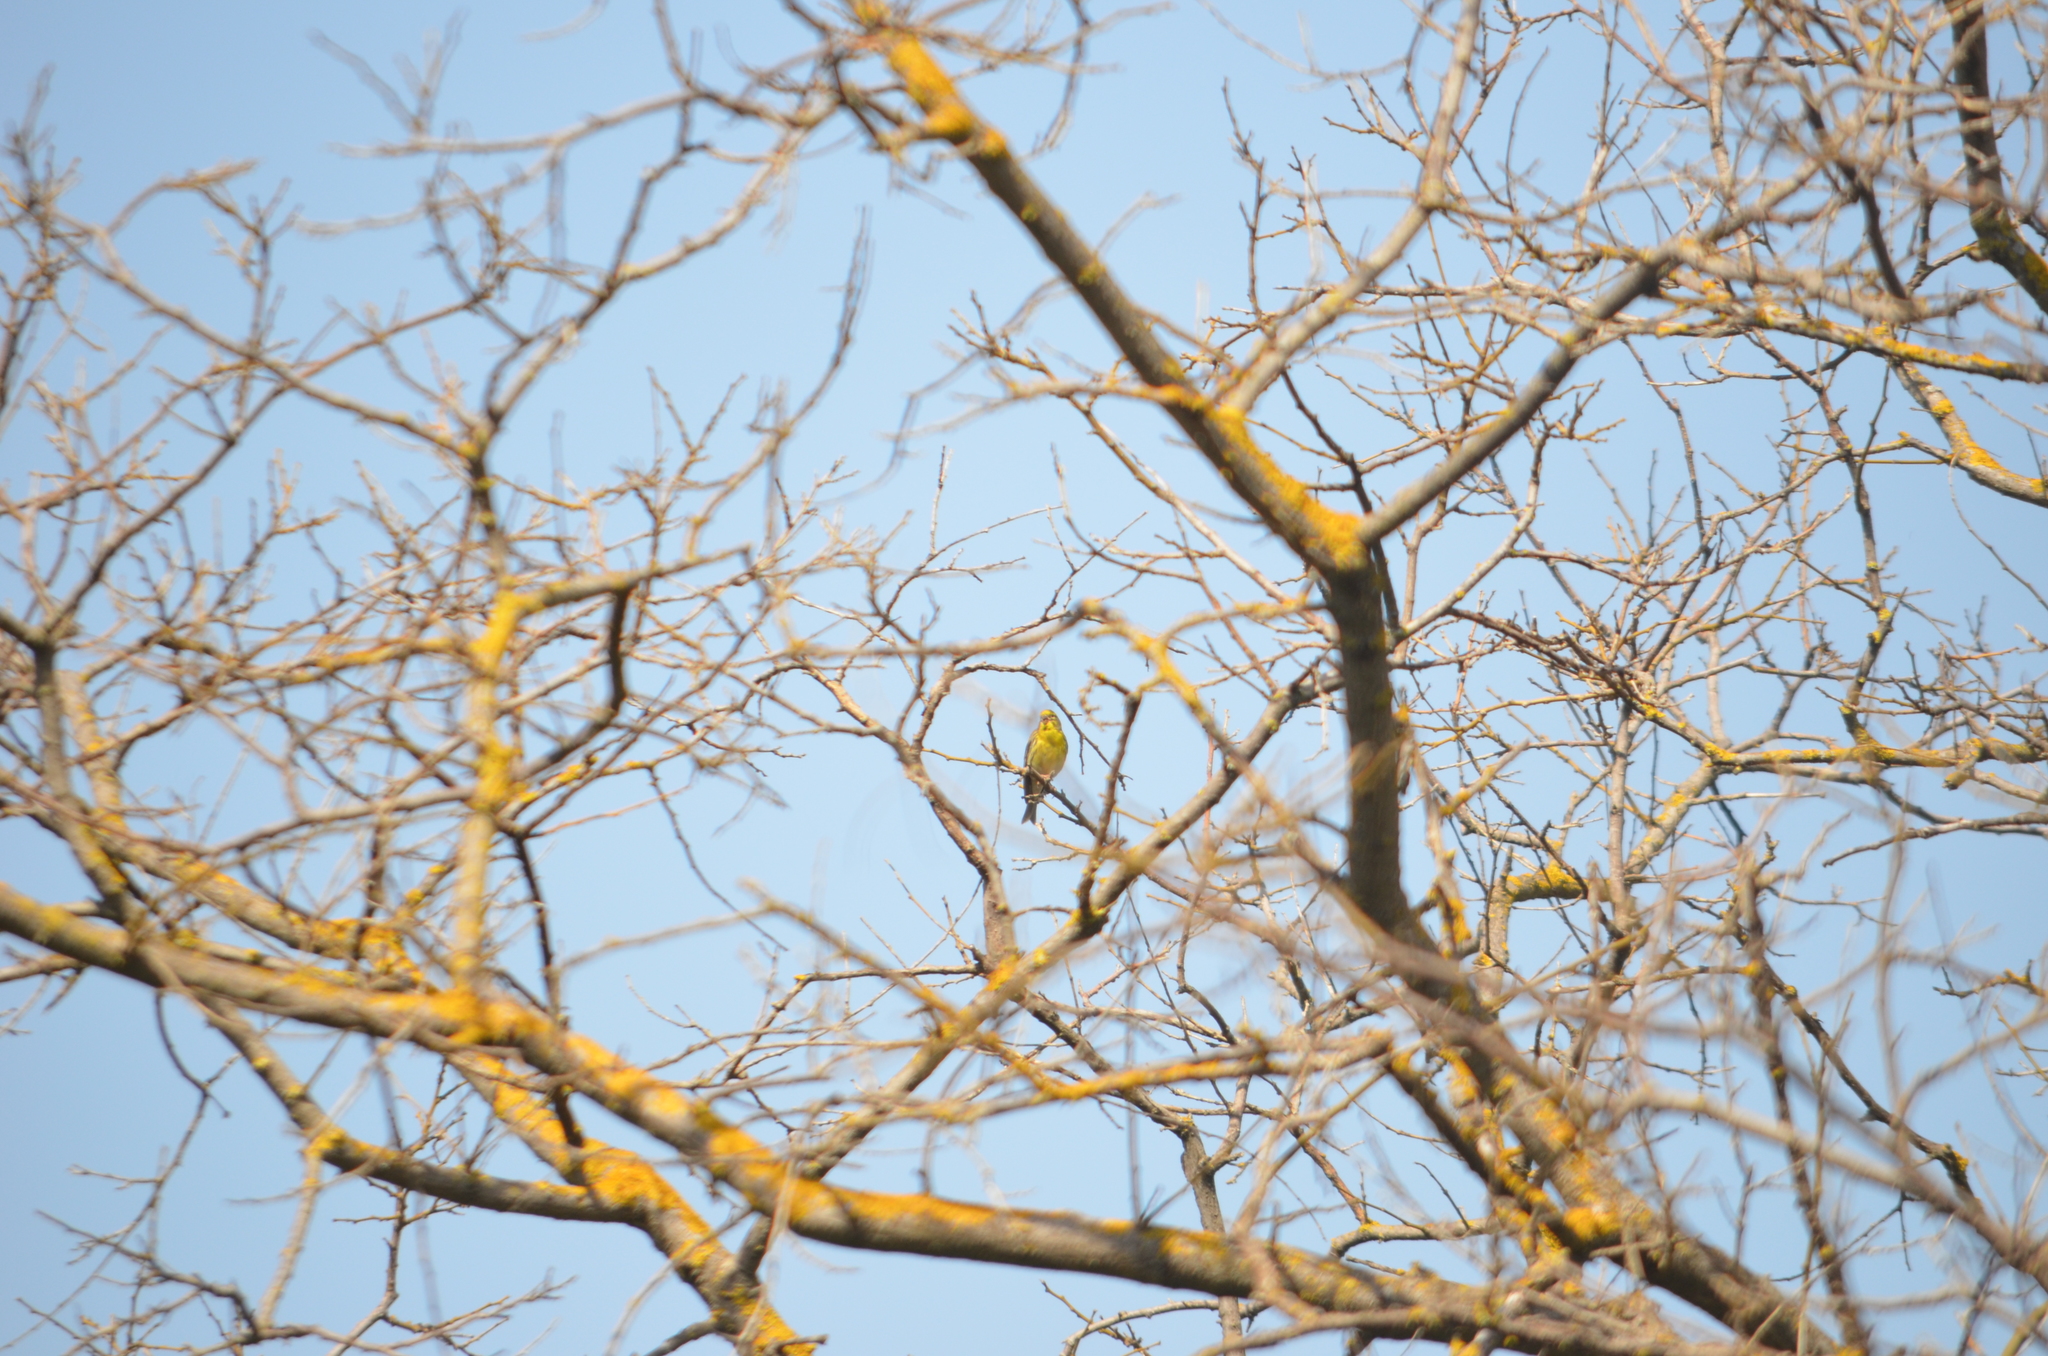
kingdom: Animalia
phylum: Chordata
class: Aves
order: Passeriformes
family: Fringillidae
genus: Serinus
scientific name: Serinus serinus
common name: European serin
